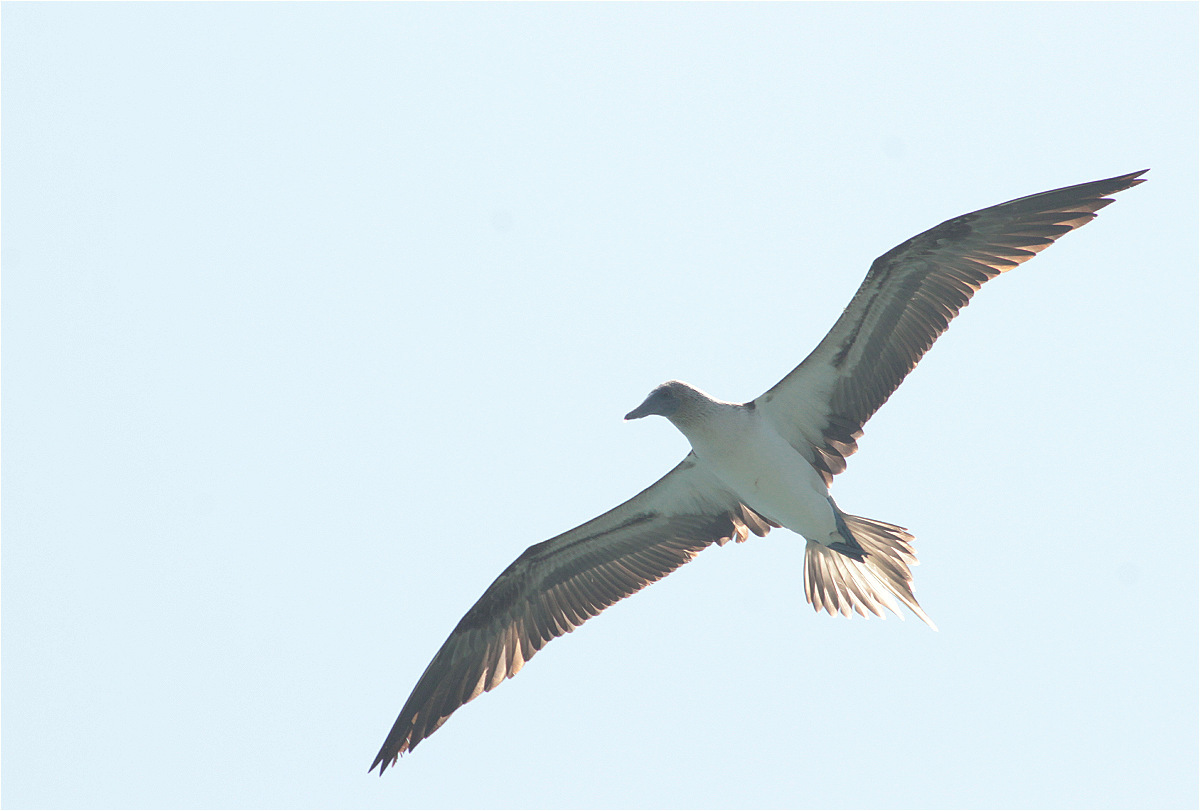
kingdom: Animalia
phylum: Chordata
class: Aves
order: Suliformes
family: Sulidae
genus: Sula
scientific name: Sula nebouxii
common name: Blue-footed booby
